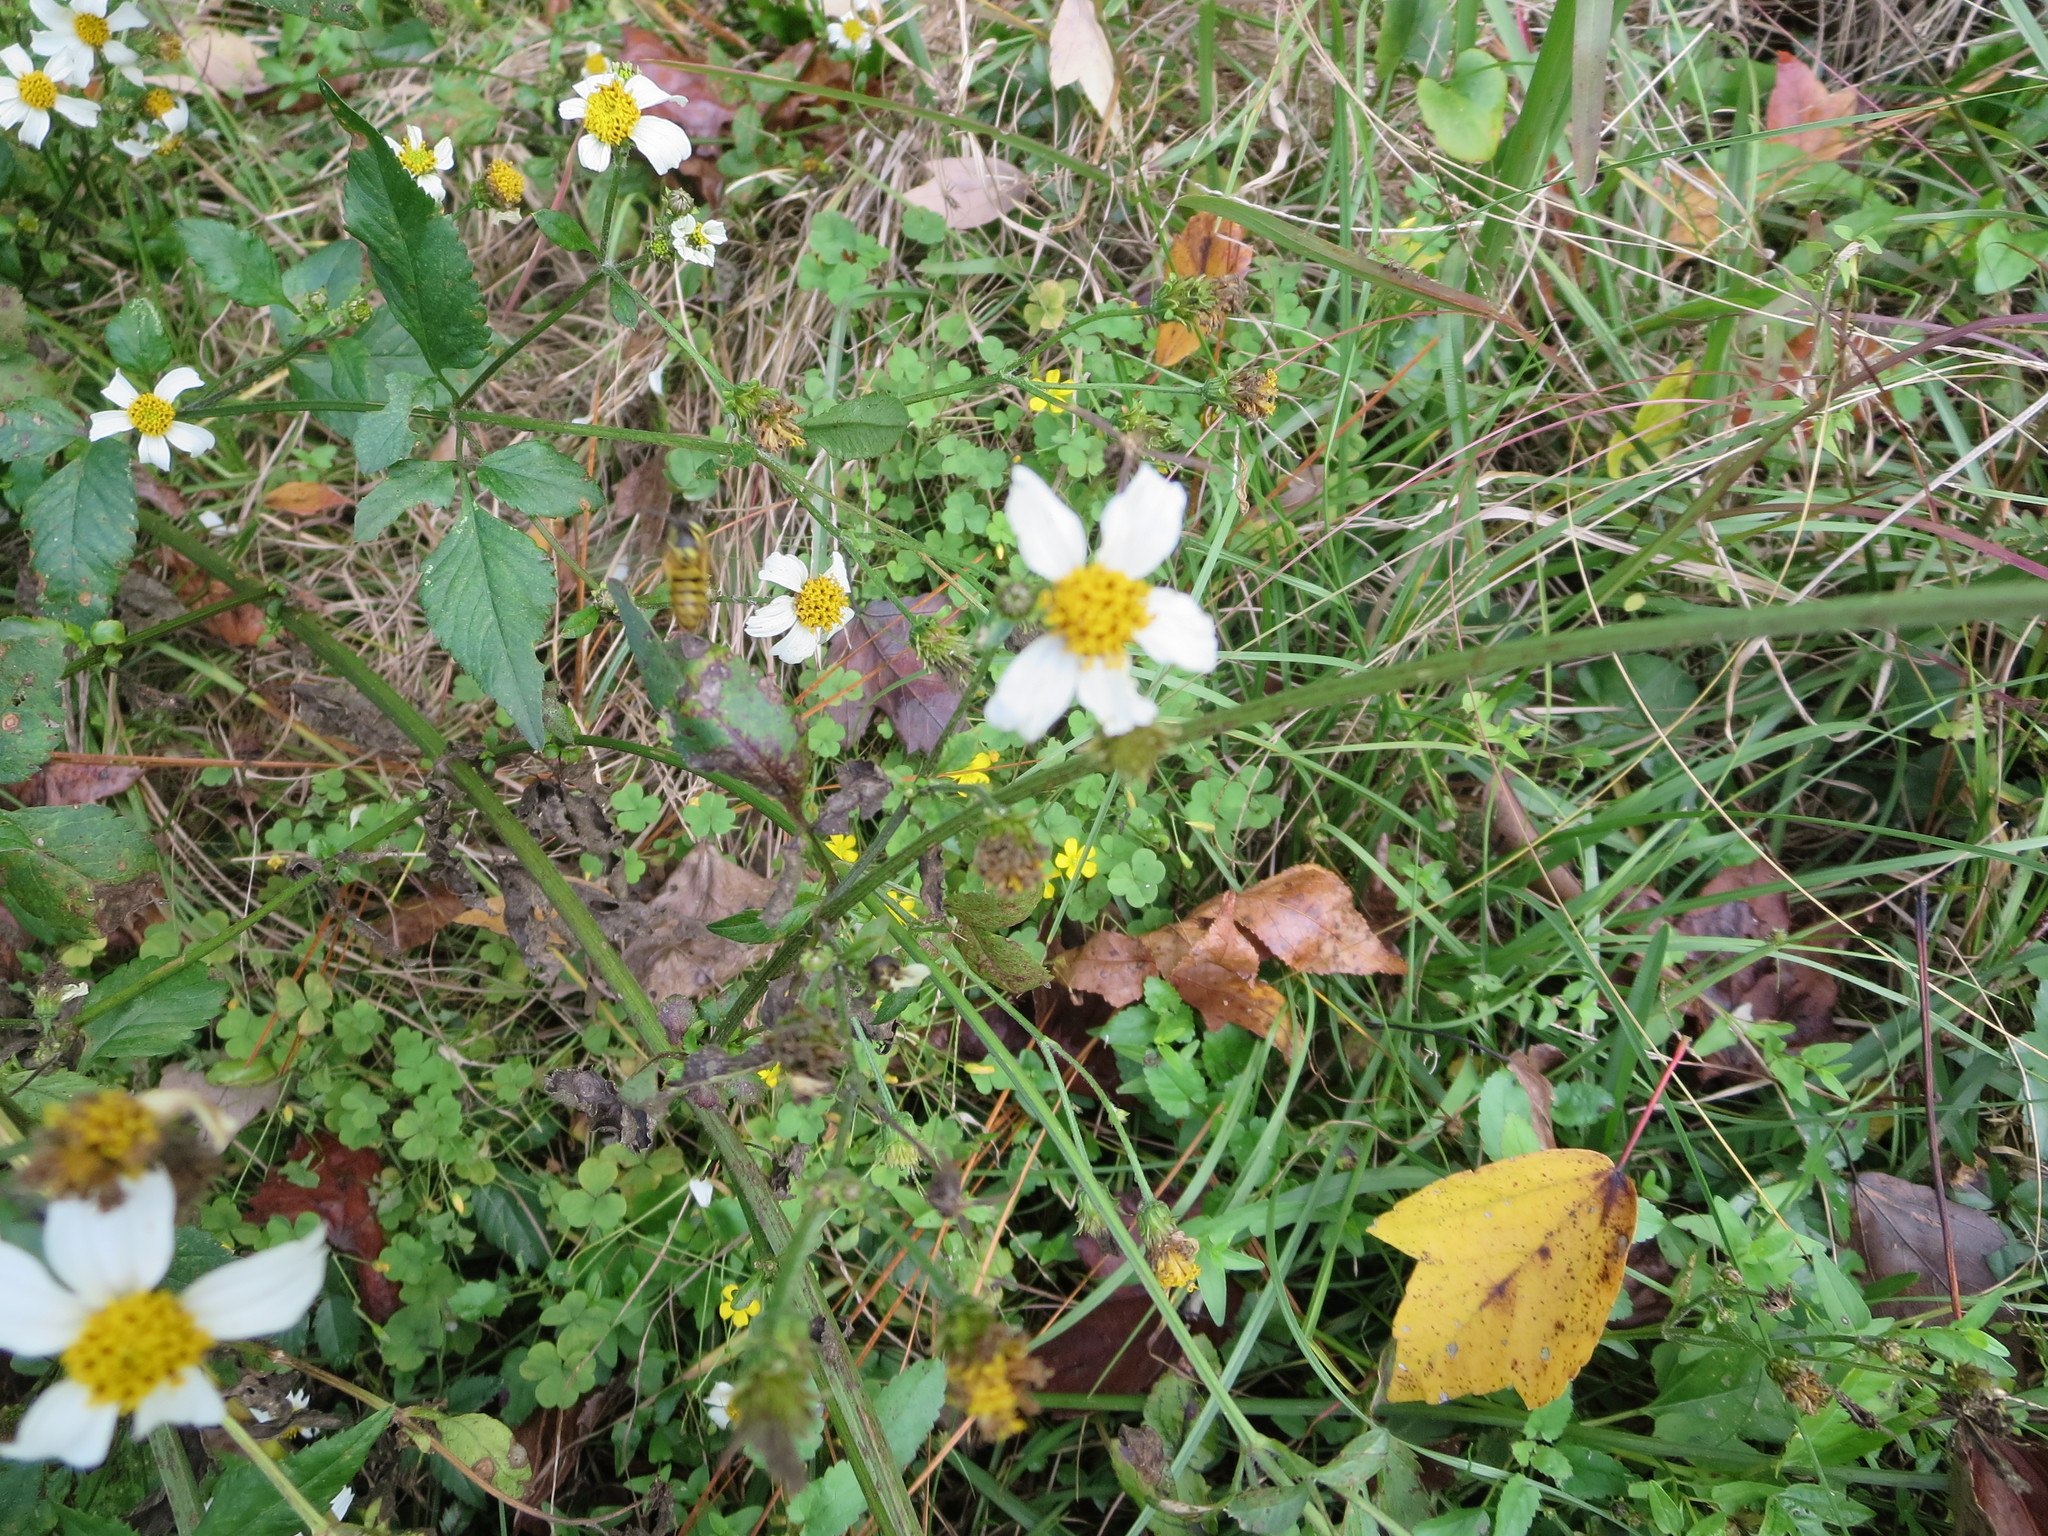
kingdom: Plantae
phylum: Tracheophyta
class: Magnoliopsida
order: Asterales
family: Asteraceae
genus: Bidens
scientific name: Bidens alba
